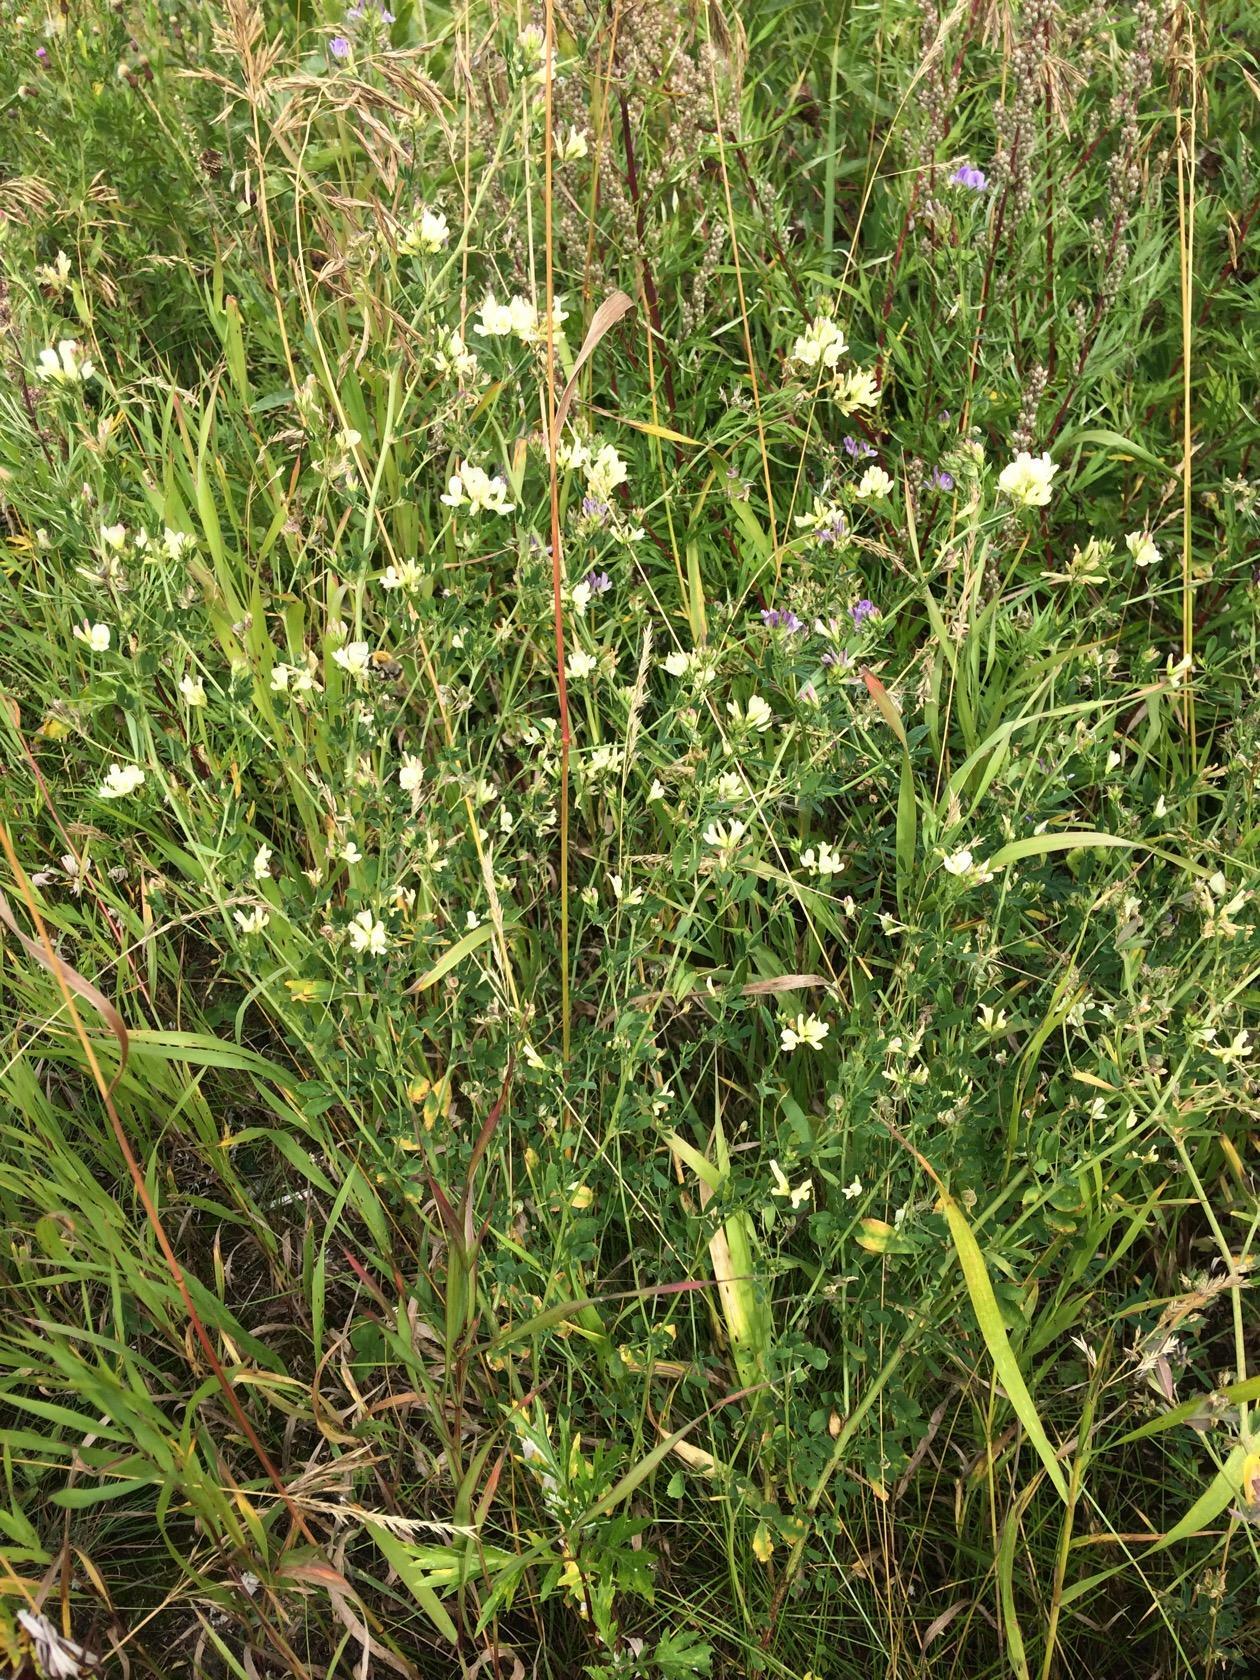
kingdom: Plantae
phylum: Tracheophyta
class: Magnoliopsida
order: Fabales
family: Fabaceae
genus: Medicago
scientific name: Medicago varia
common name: Sand lucerne
